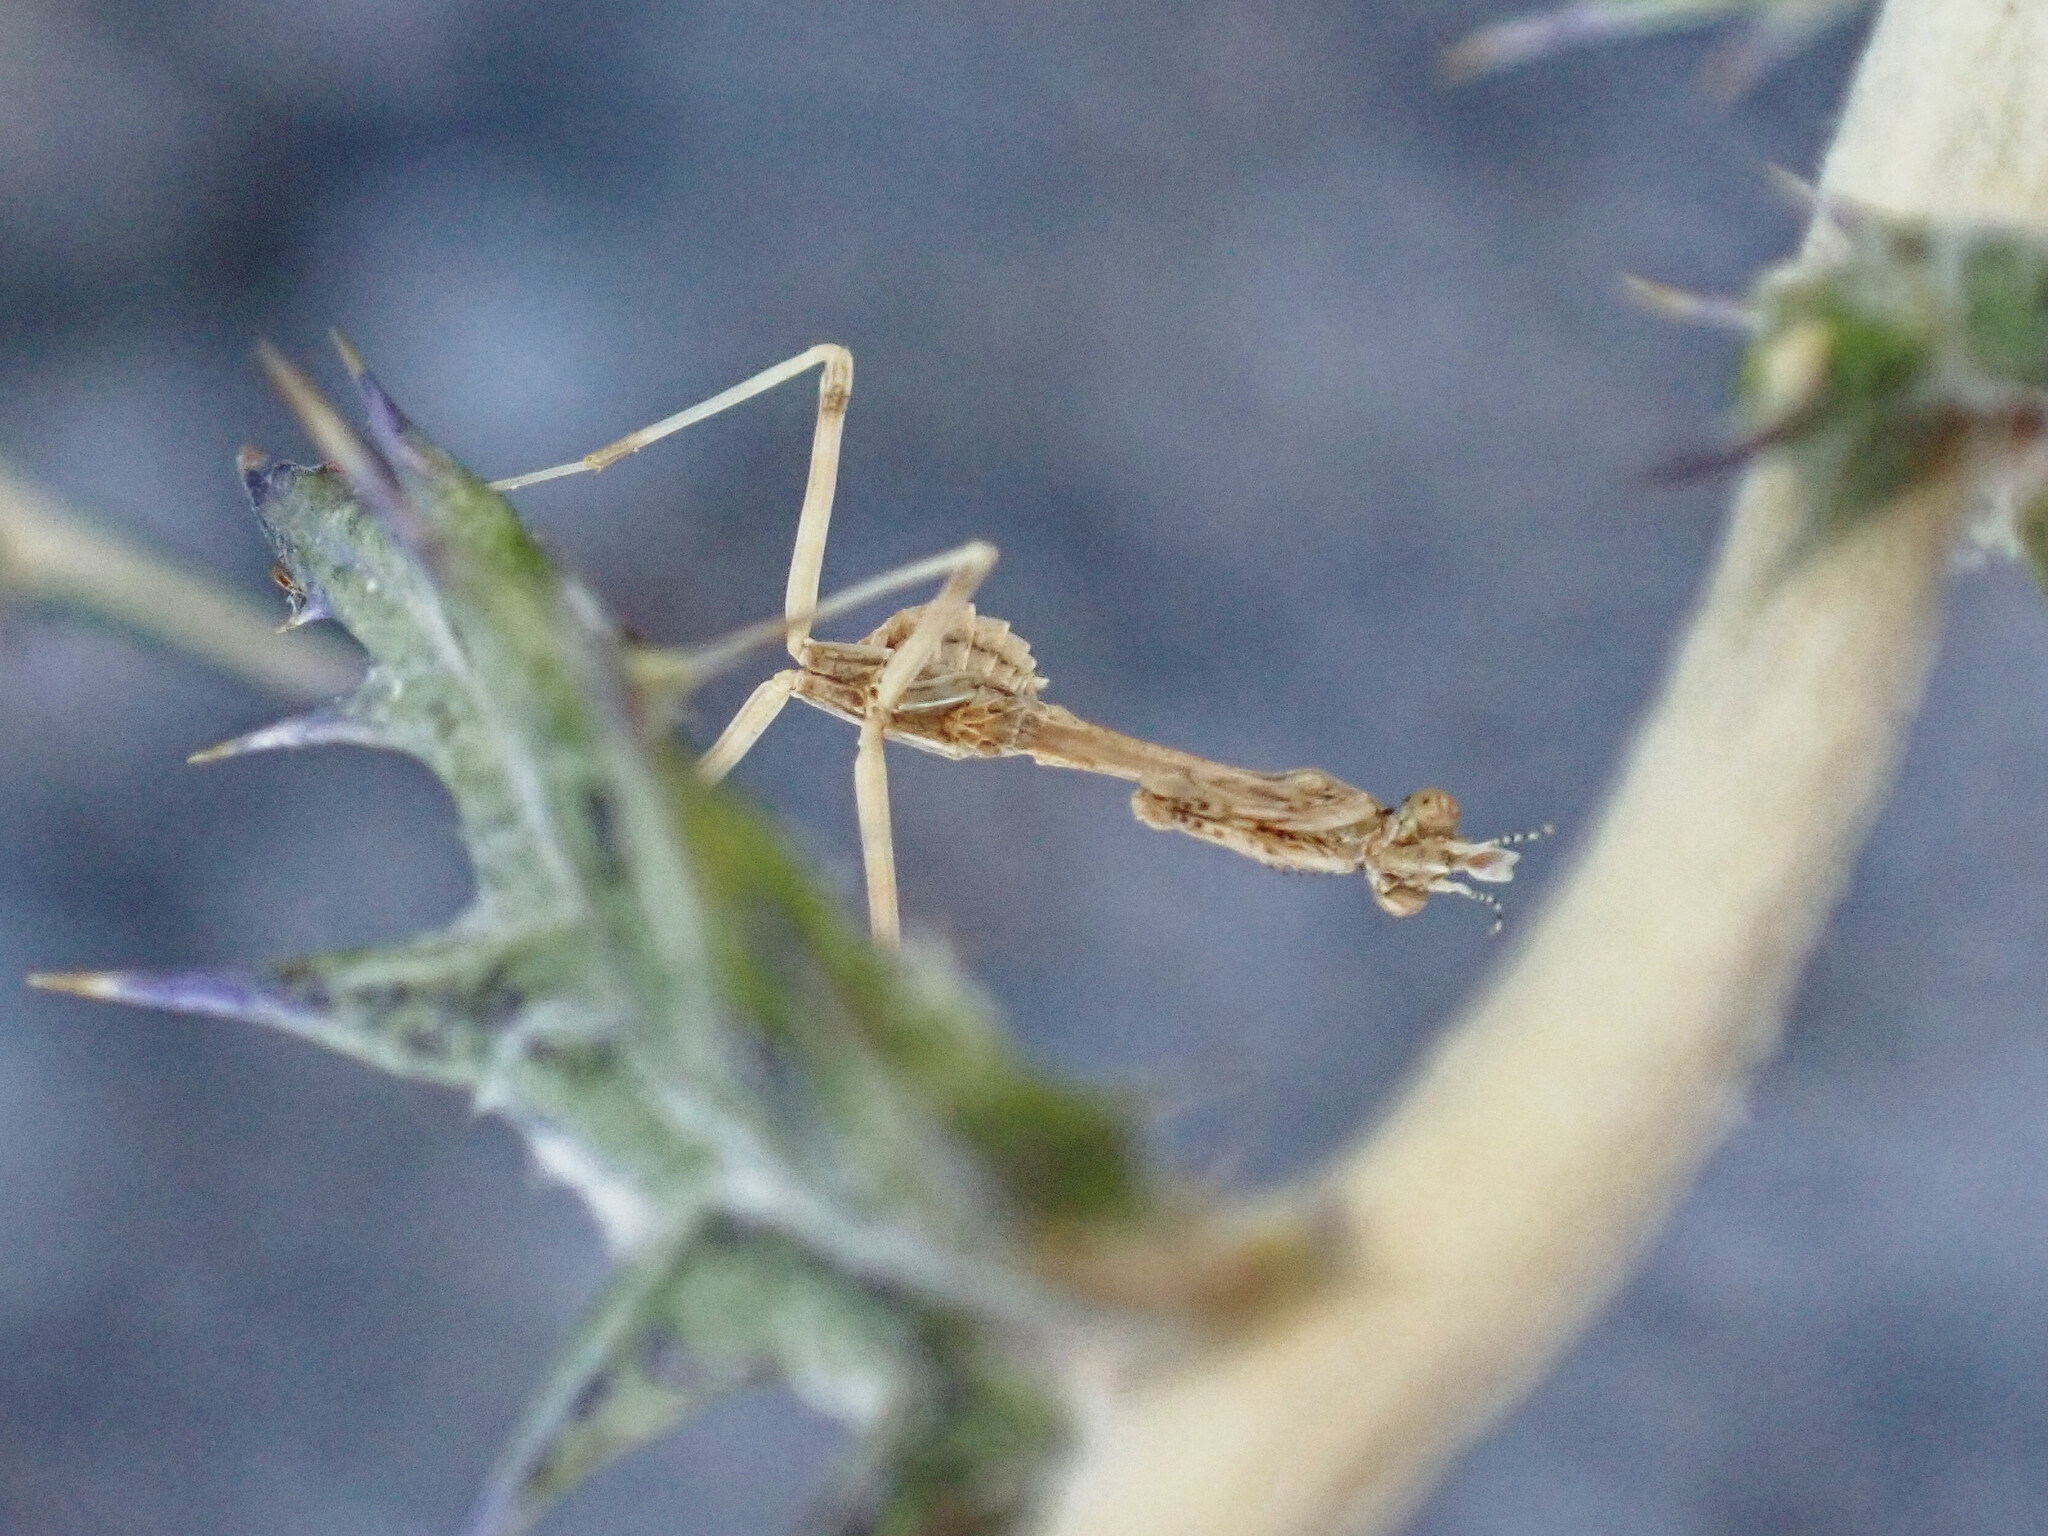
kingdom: Animalia
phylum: Arthropoda
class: Insecta
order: Mantodea
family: Empusidae
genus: Empusa
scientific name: Empusa pennata
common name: Conehead mantis
